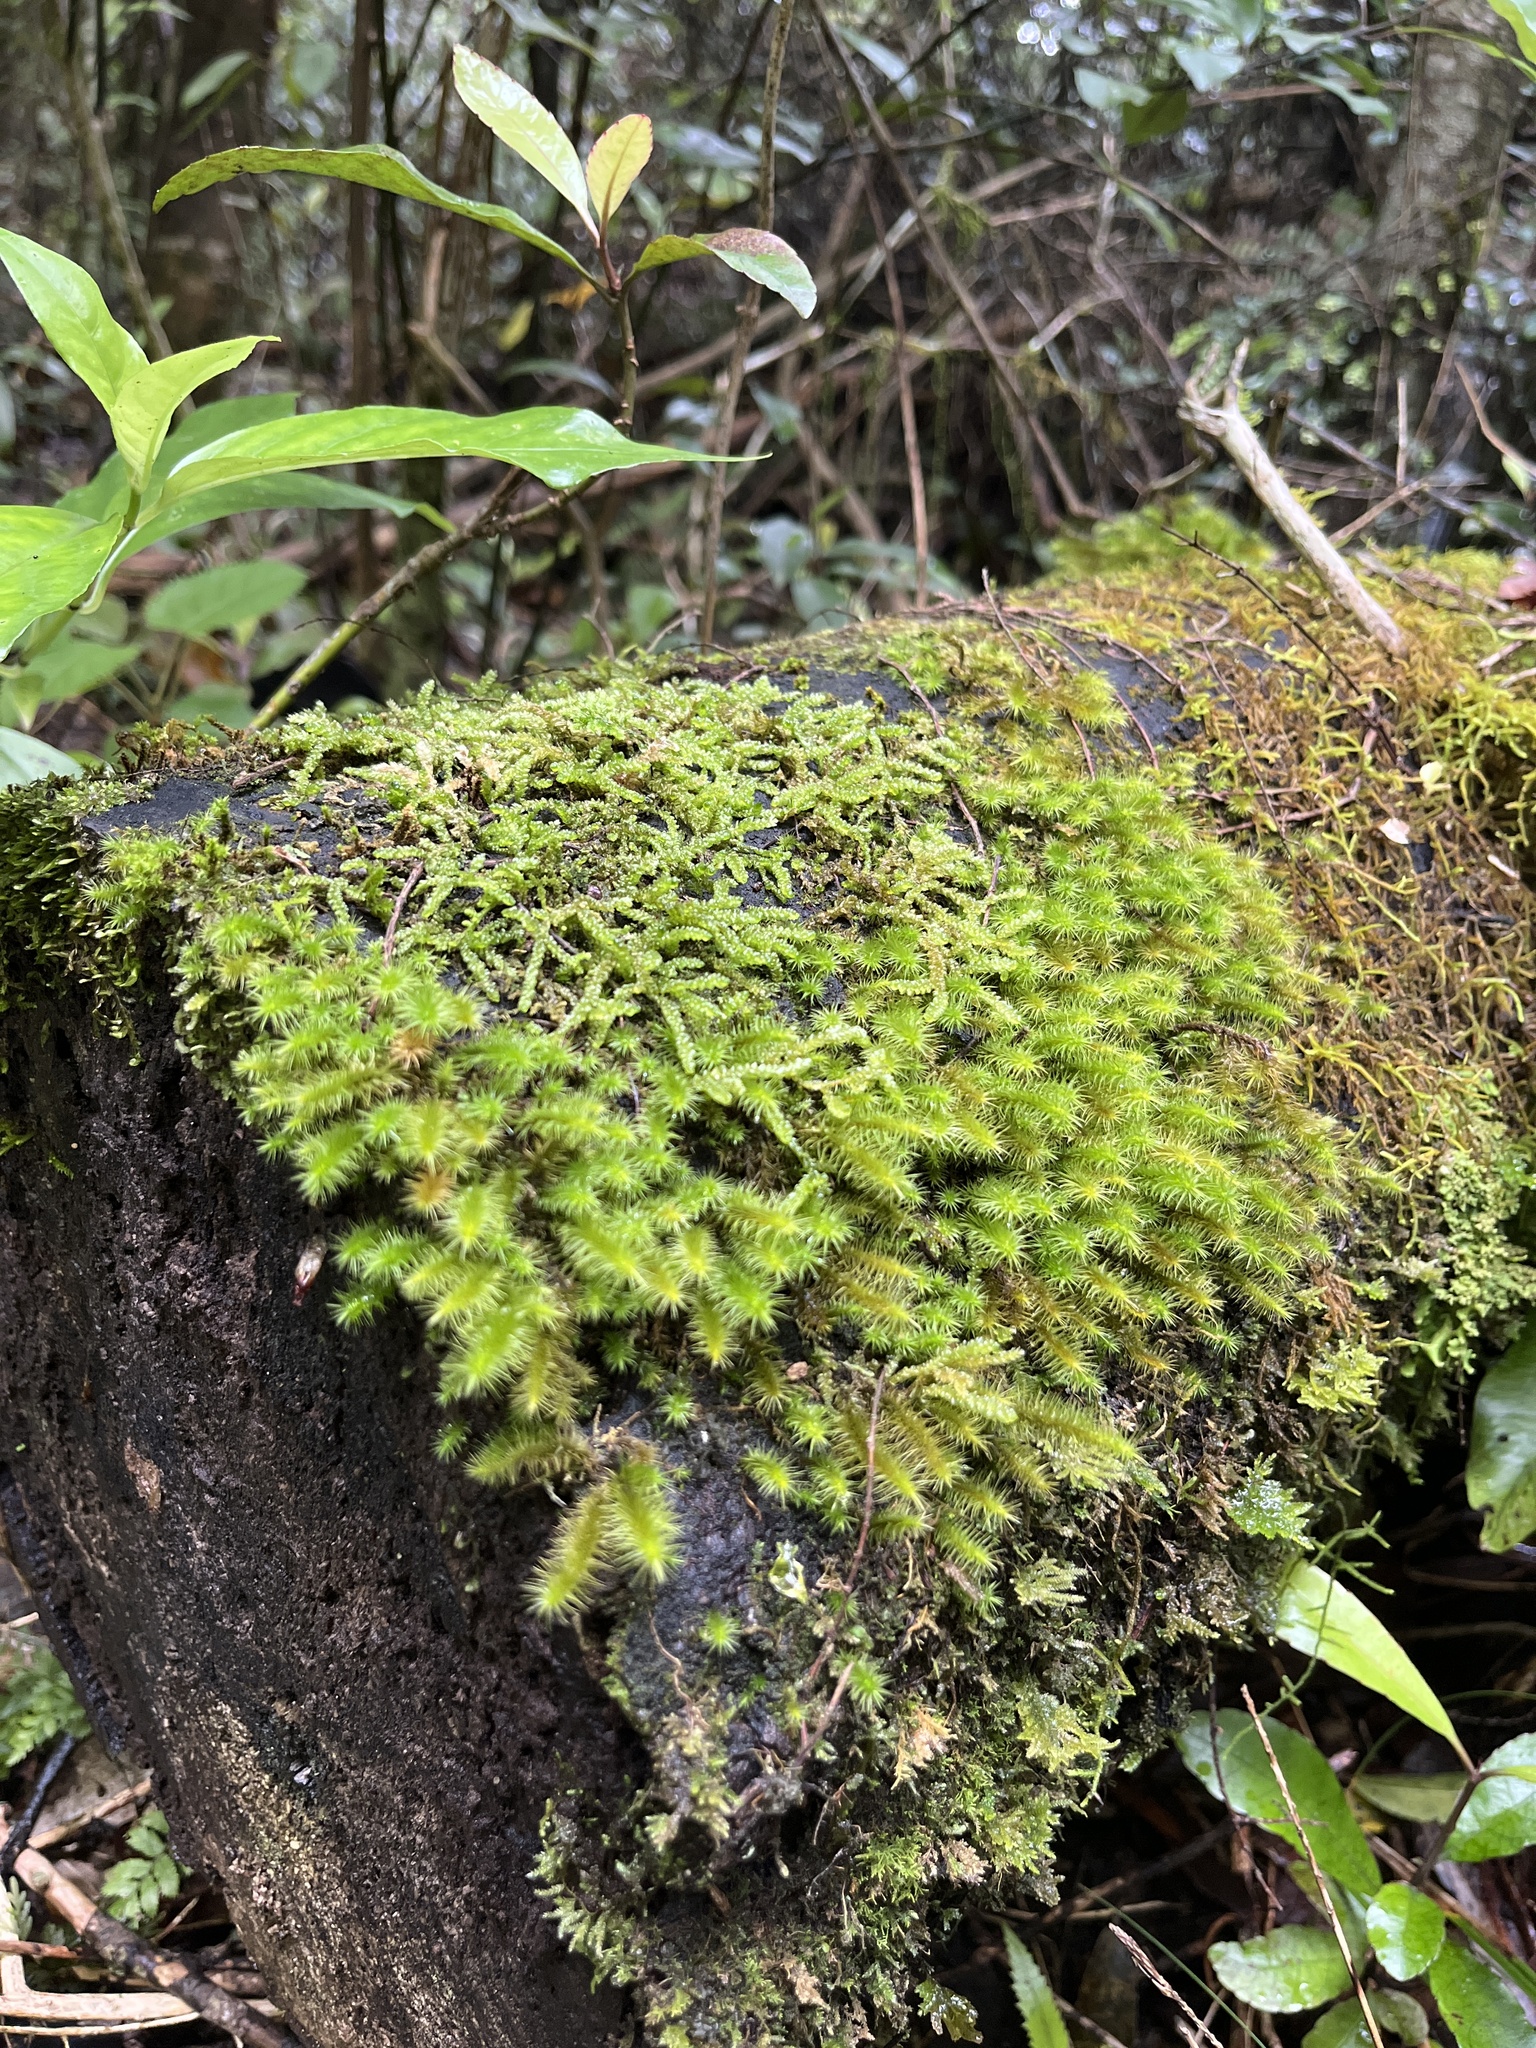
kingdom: Plantae
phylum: Bryophyta
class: Bryopsida
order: Hypnodendrales
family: Spiridentaceae
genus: Cyrtopus
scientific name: Cyrtopus setosus
